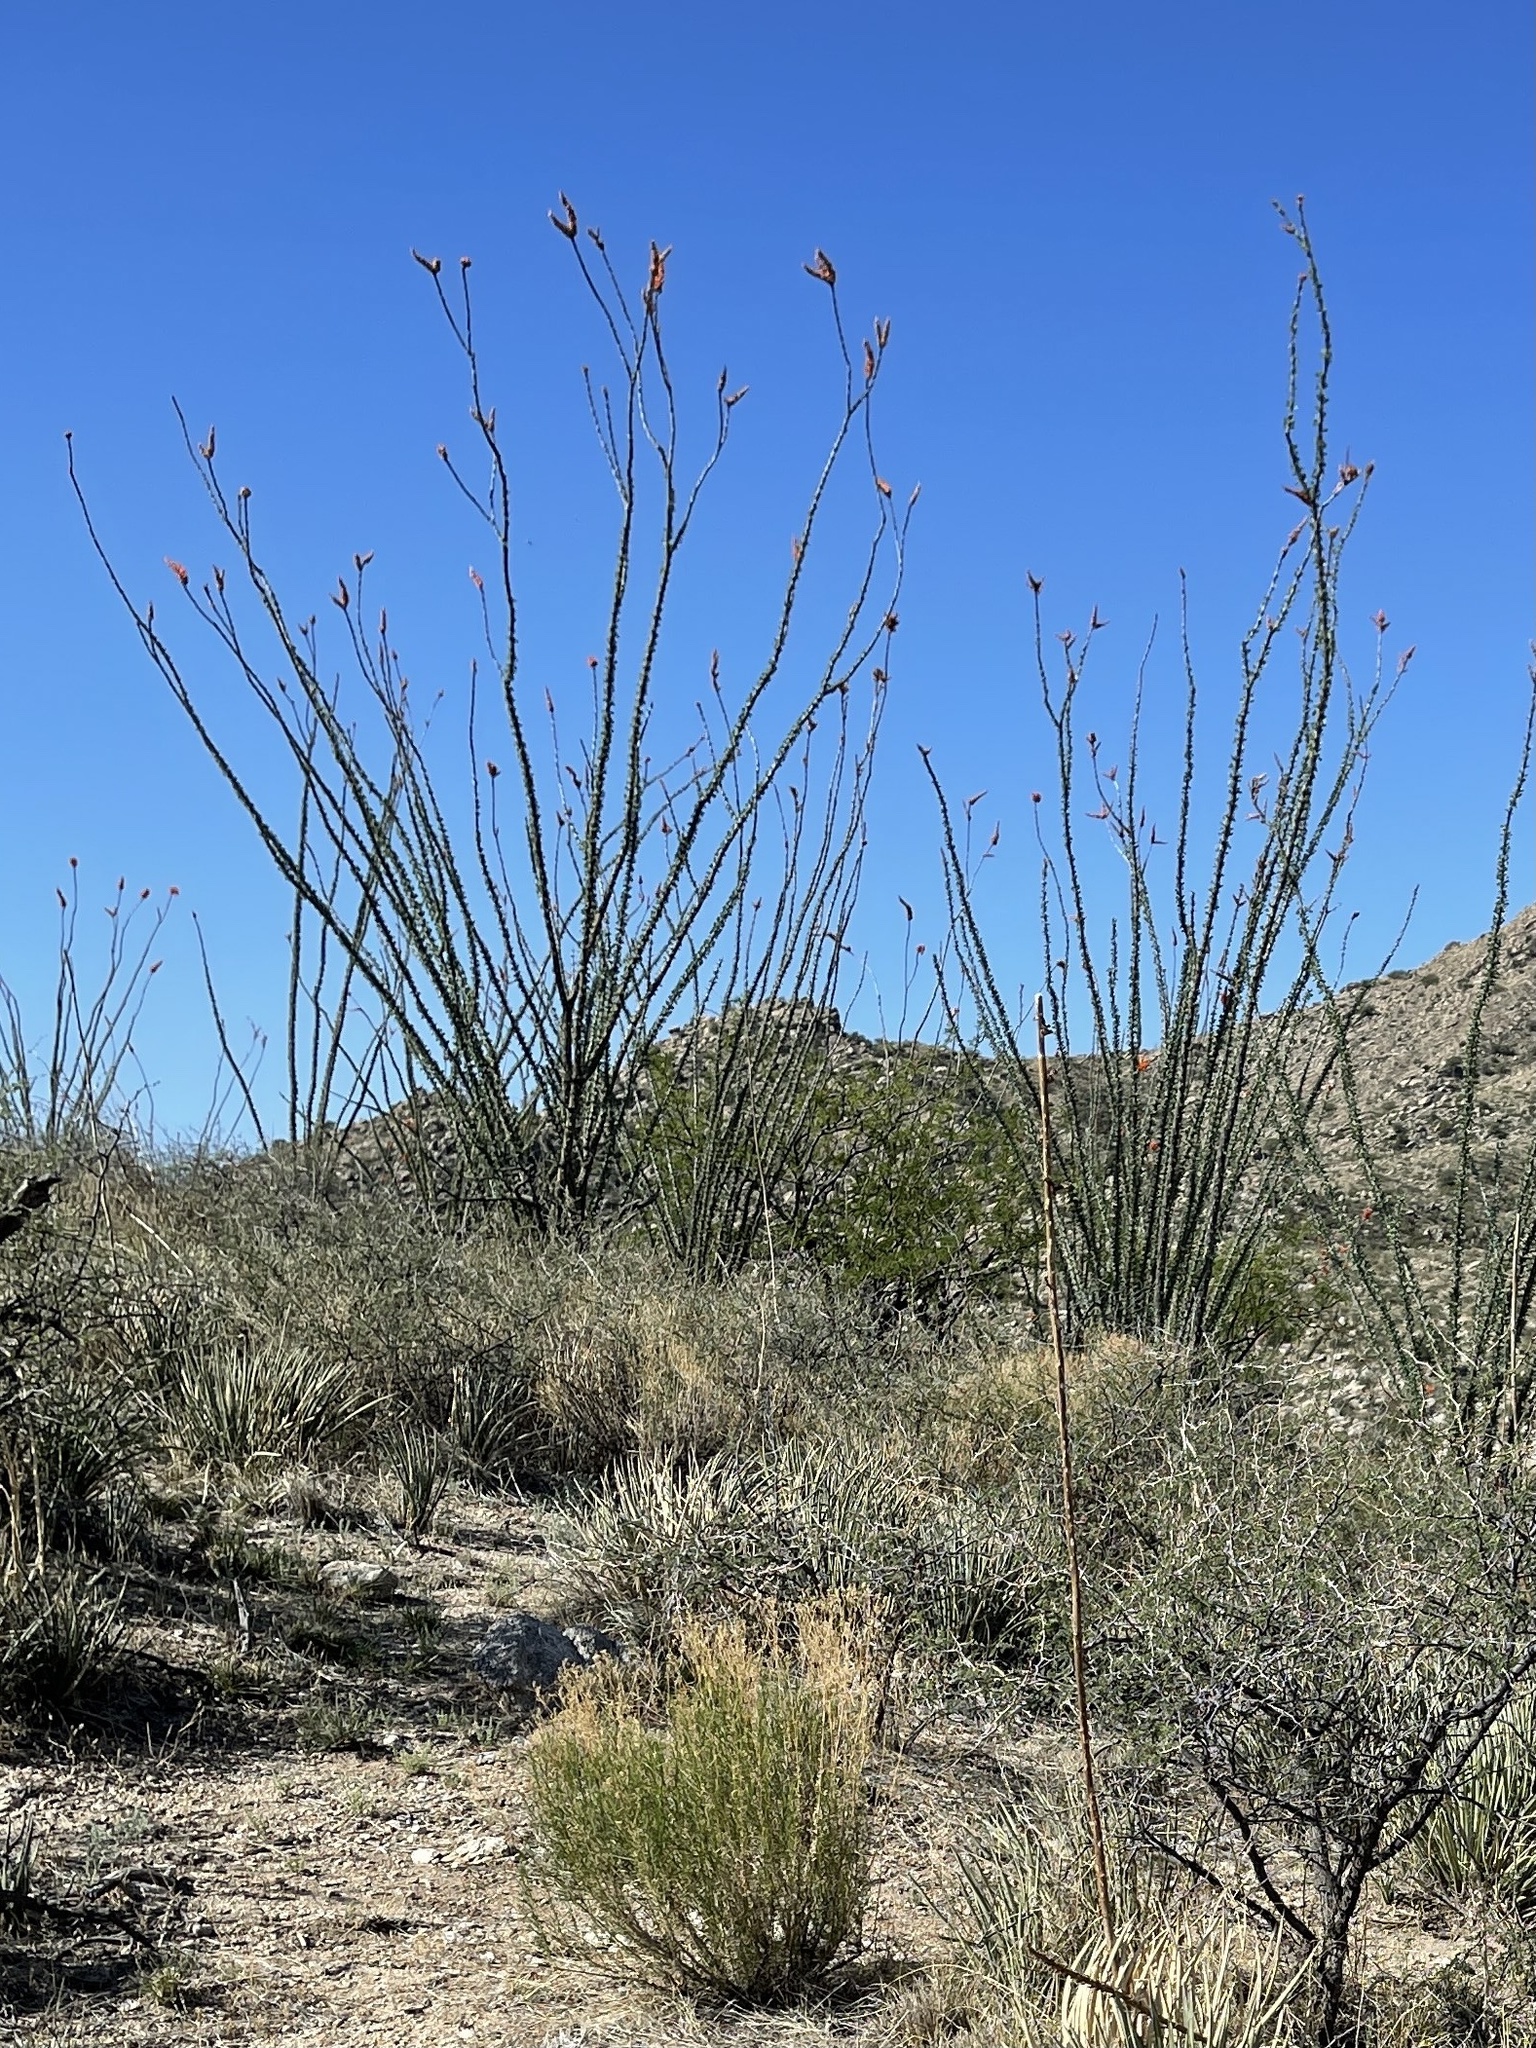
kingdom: Plantae
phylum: Tracheophyta
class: Magnoliopsida
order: Ericales
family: Fouquieriaceae
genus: Fouquieria
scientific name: Fouquieria splendens
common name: Vine-cactus
